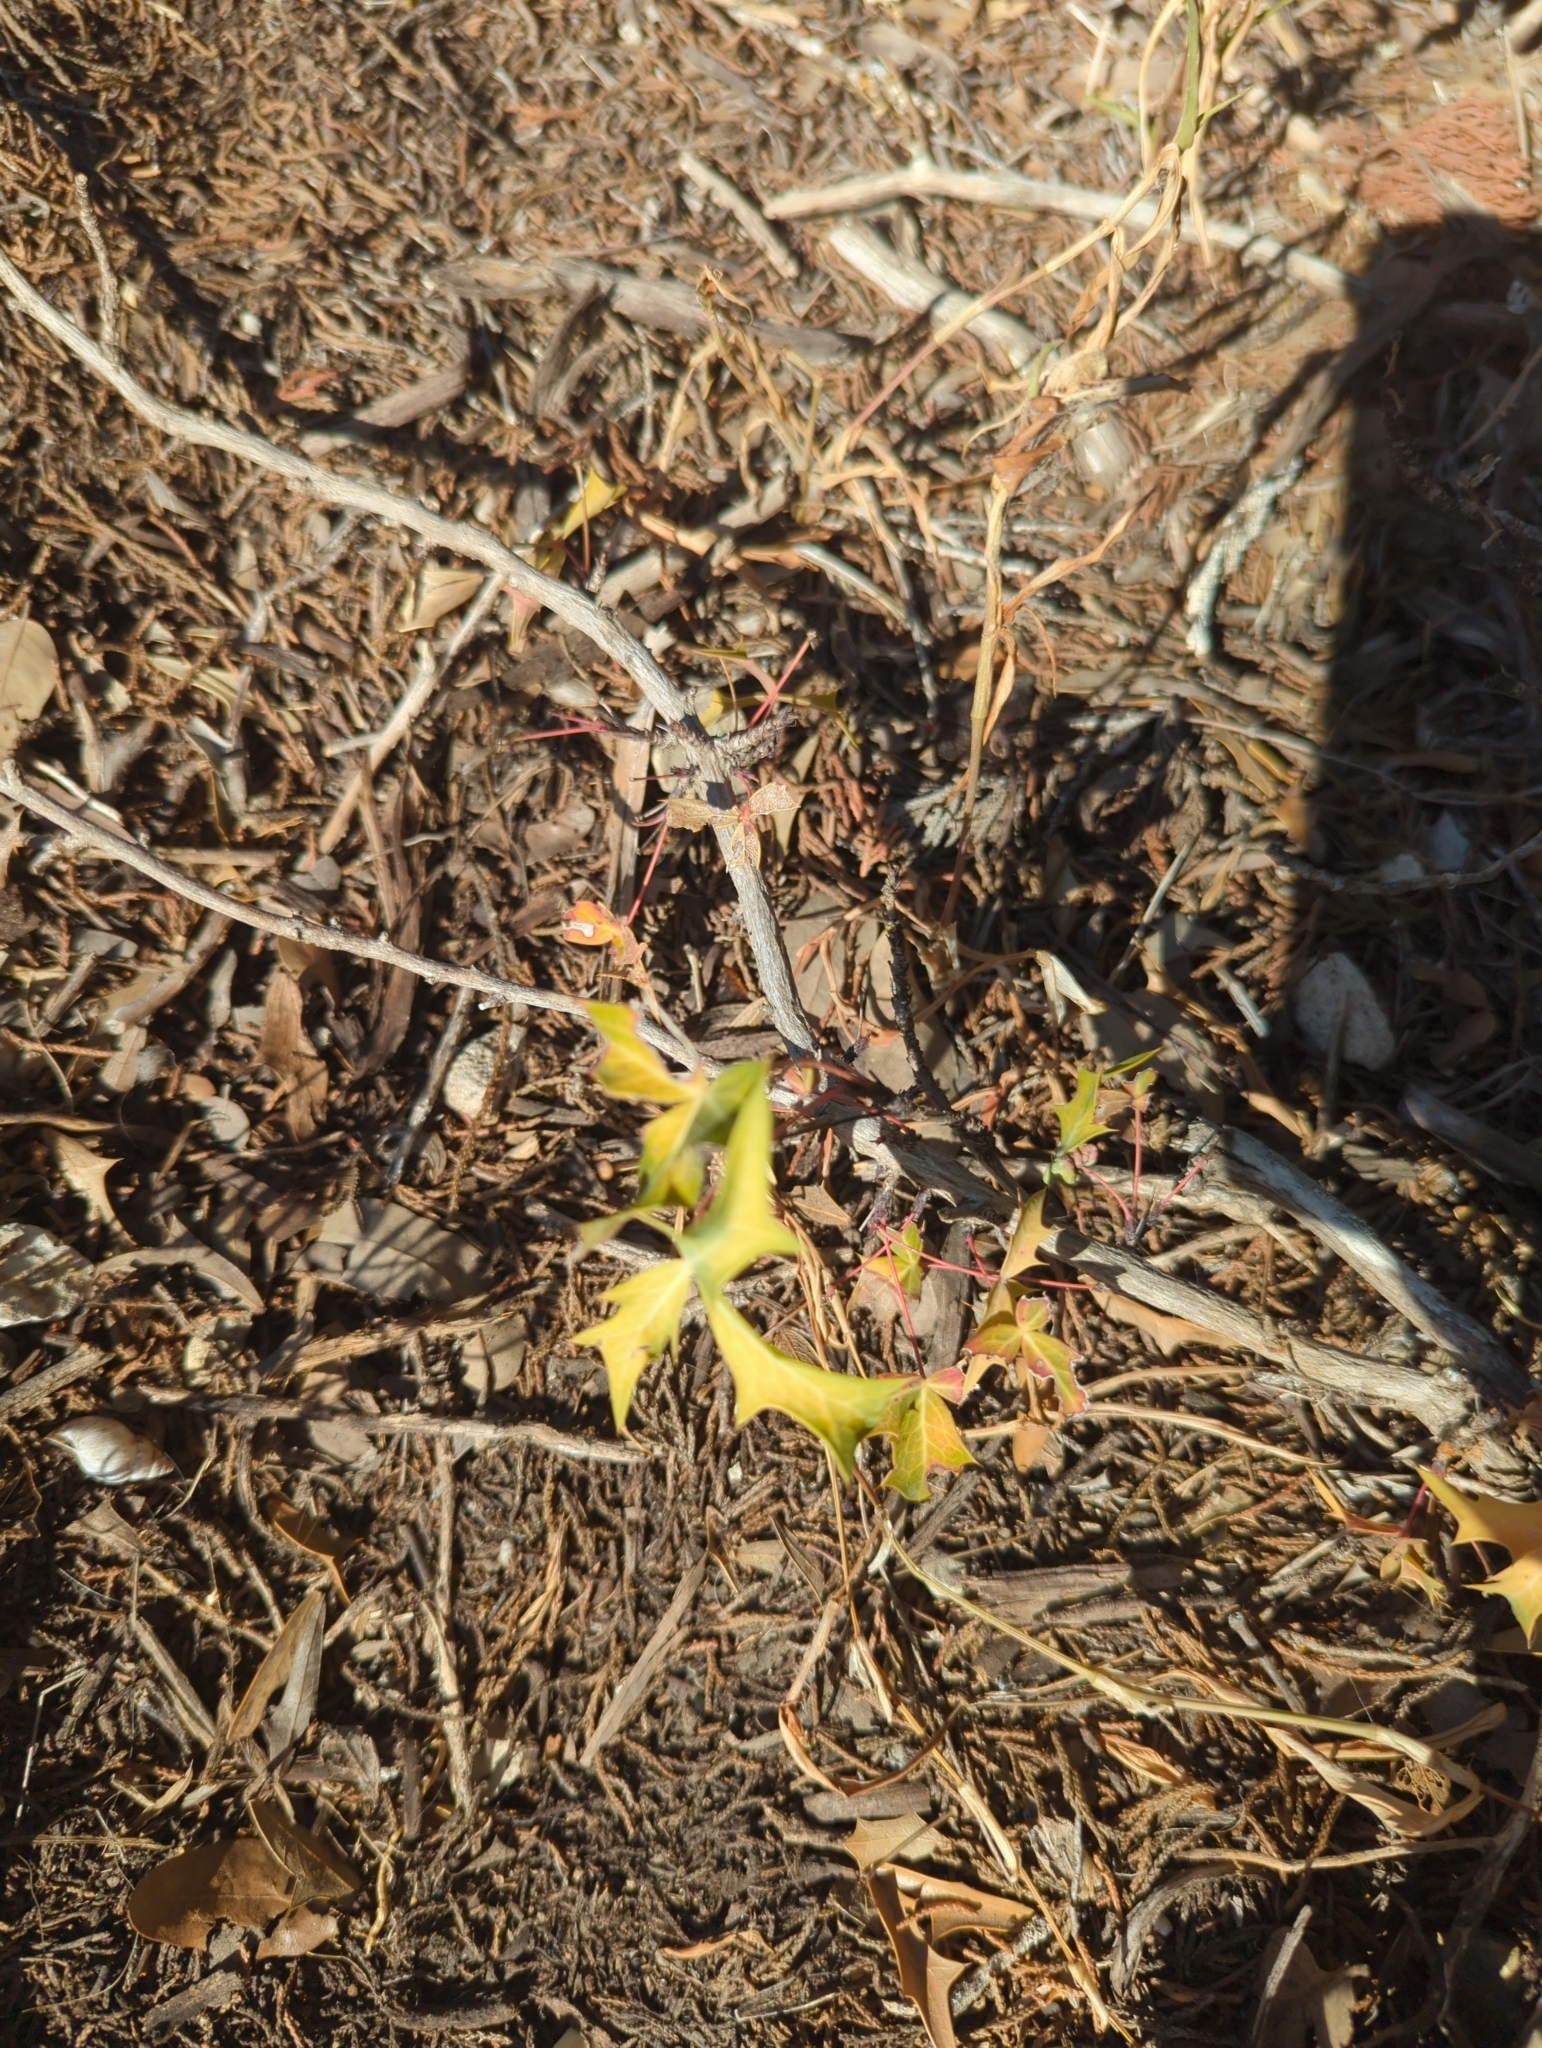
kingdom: Plantae
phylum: Tracheophyta
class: Magnoliopsida
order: Ranunculales
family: Berberidaceae
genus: Alloberberis
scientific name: Alloberberis trifoliolata
